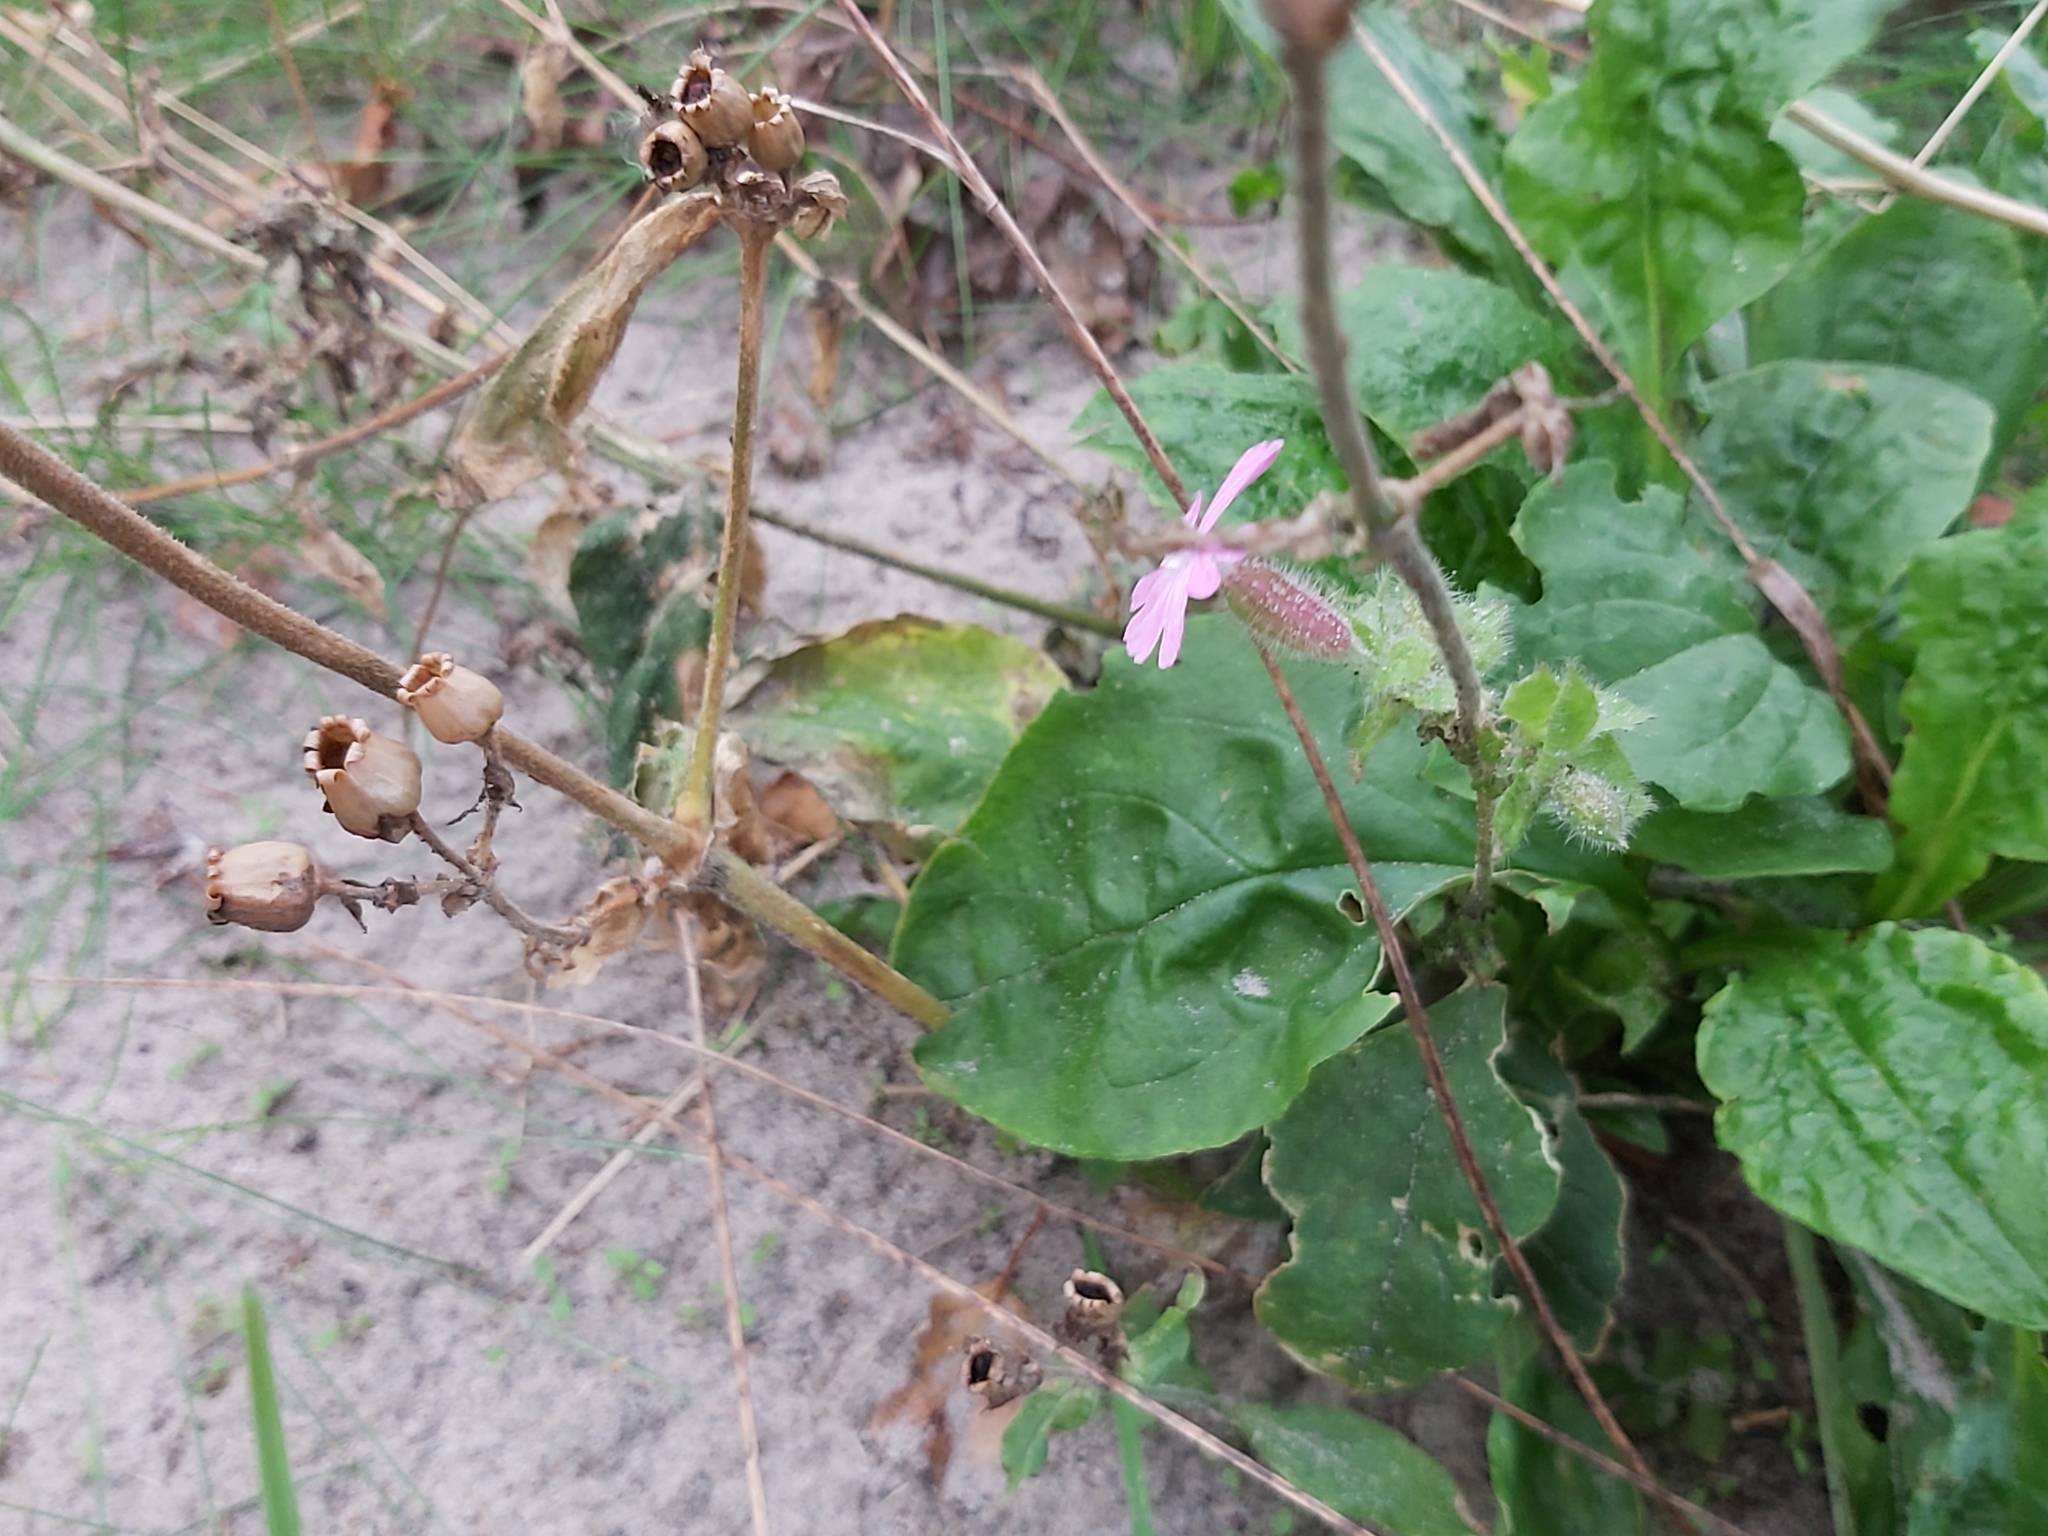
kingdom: Plantae
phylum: Tracheophyta
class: Magnoliopsida
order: Caryophyllales
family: Caryophyllaceae
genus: Silene
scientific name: Silene dioica
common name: Red campion
